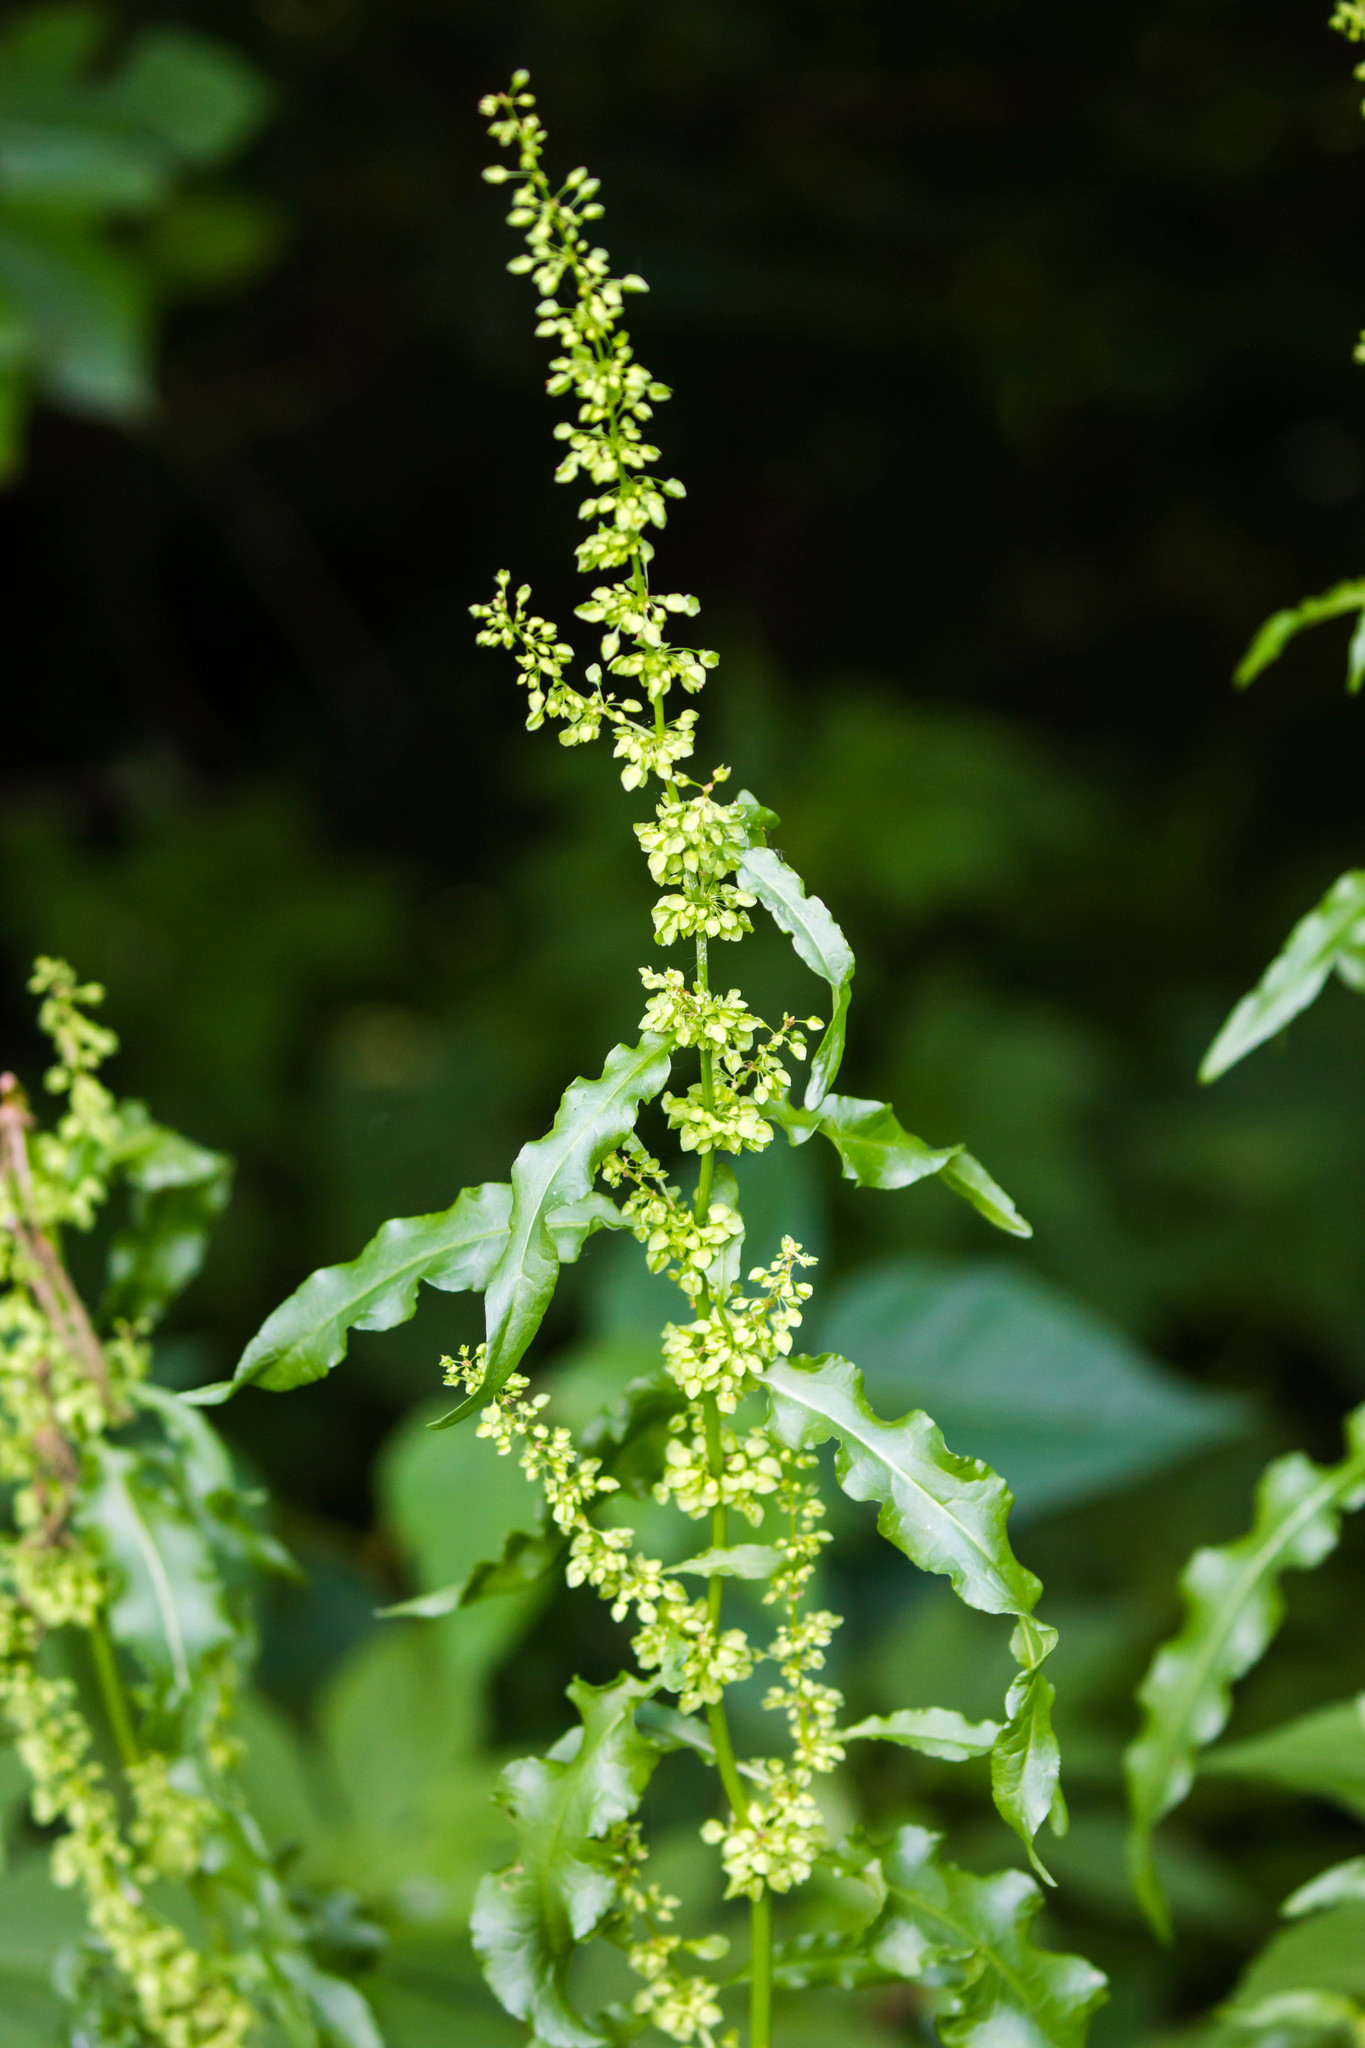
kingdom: Plantae
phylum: Tracheophyta
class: Magnoliopsida
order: Caryophyllales
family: Polygonaceae
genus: Rumex
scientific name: Rumex crispus
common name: Curled dock
